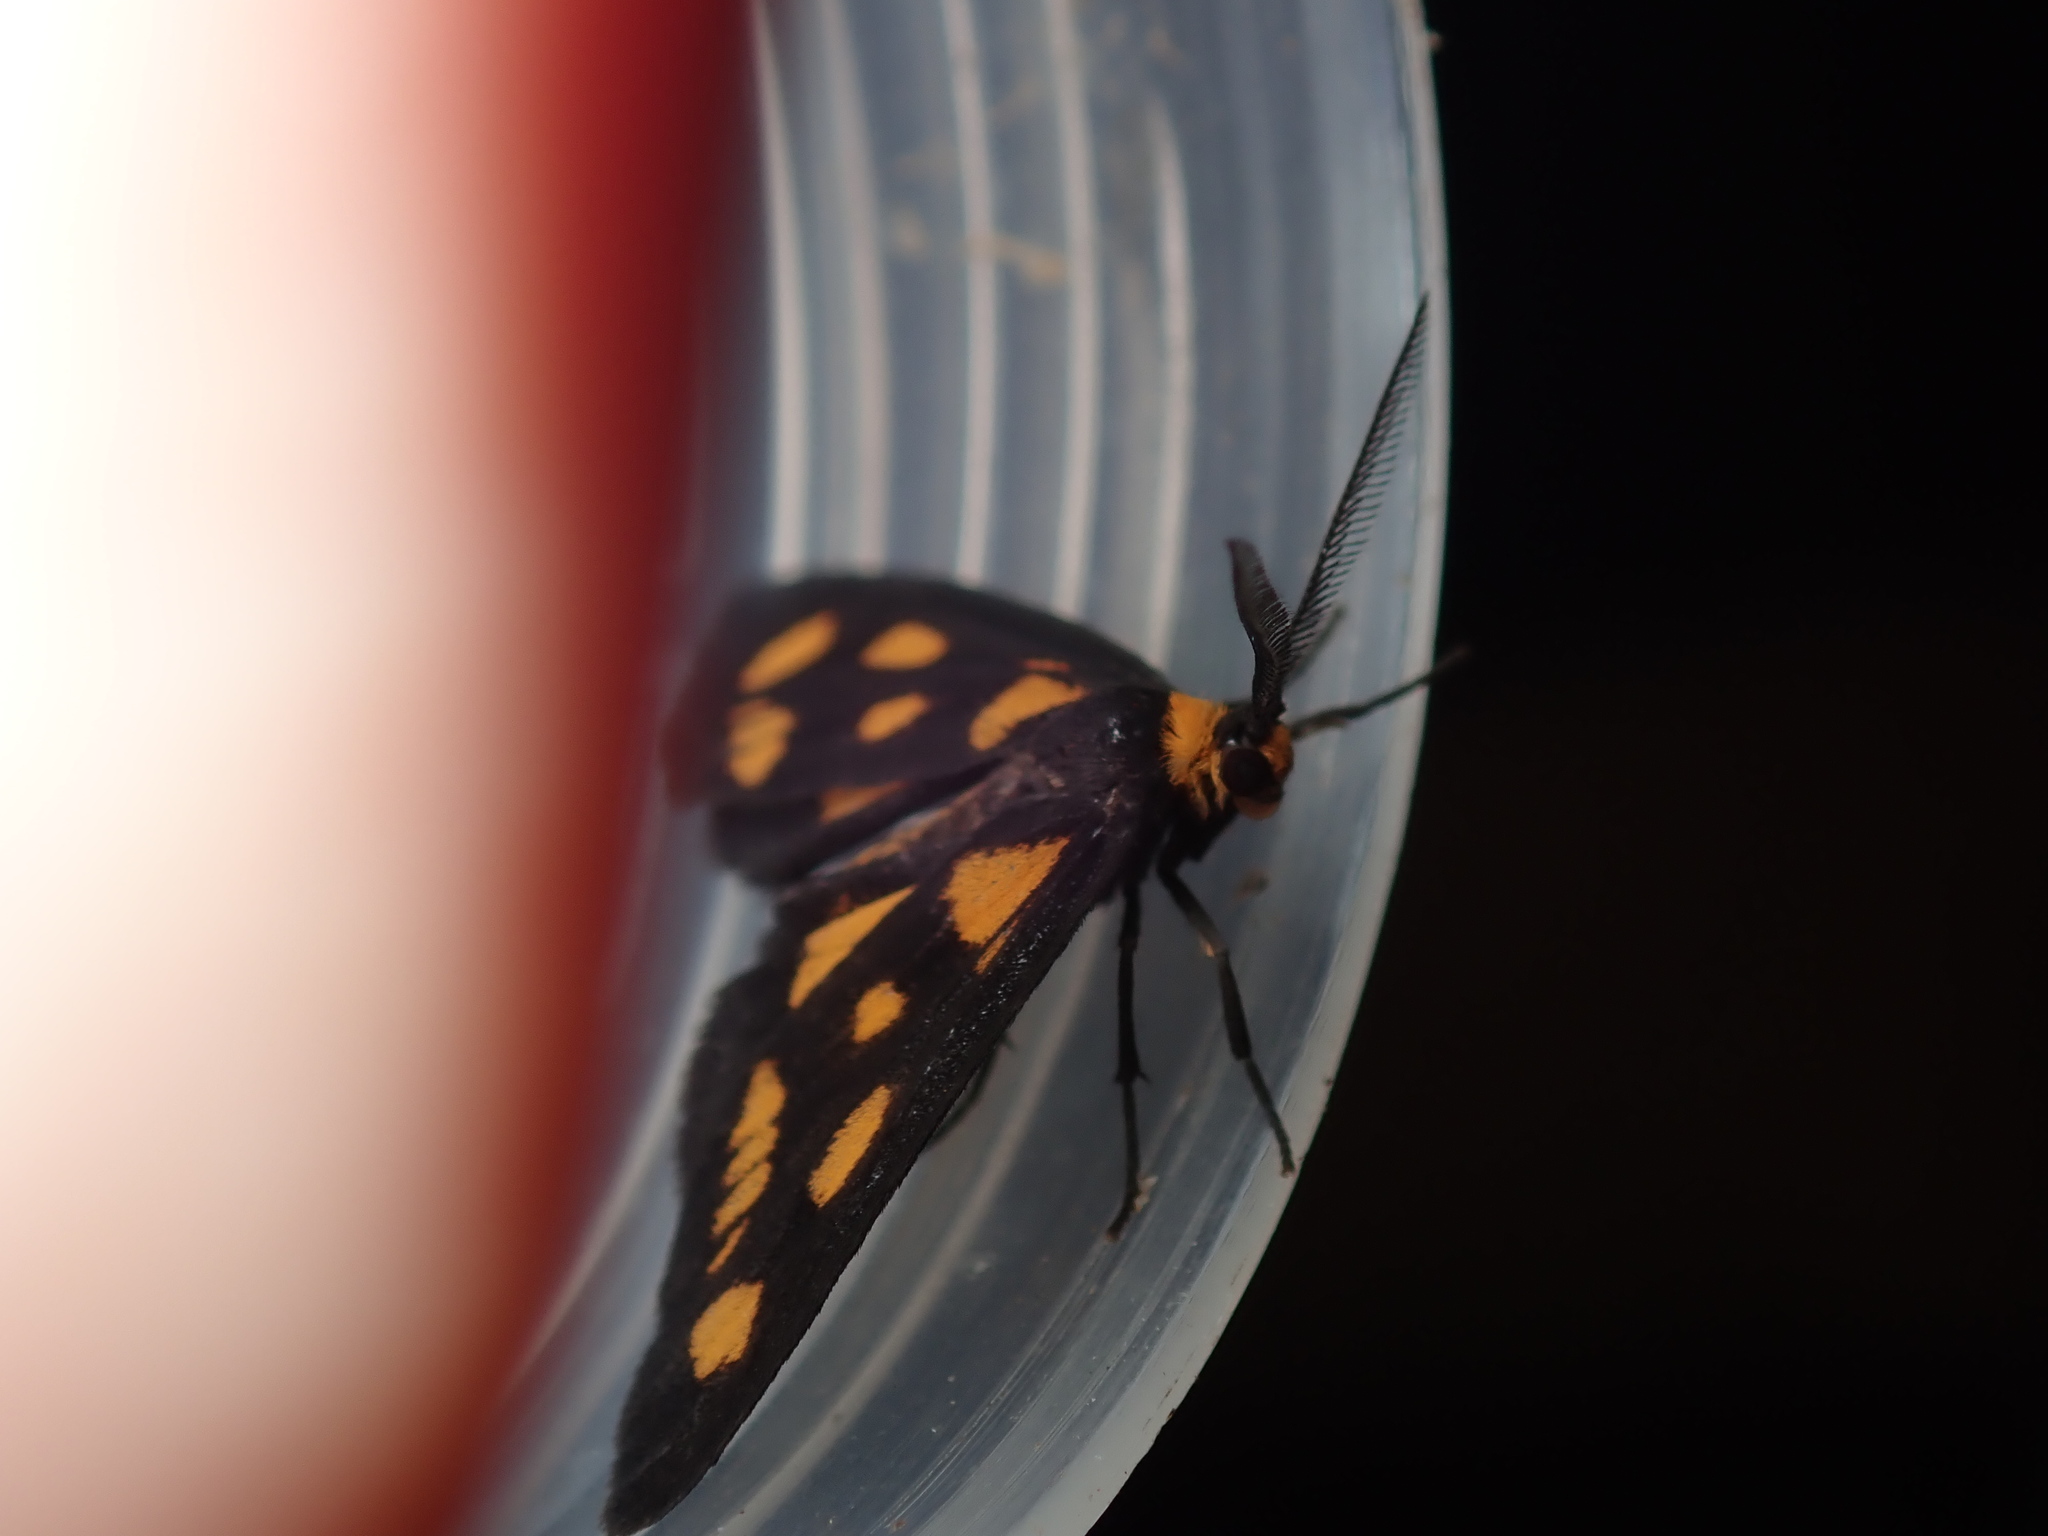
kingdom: Animalia
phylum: Arthropoda
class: Insecta
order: Lepidoptera
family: Erebidae
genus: Asura
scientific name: Asura cervicalis
